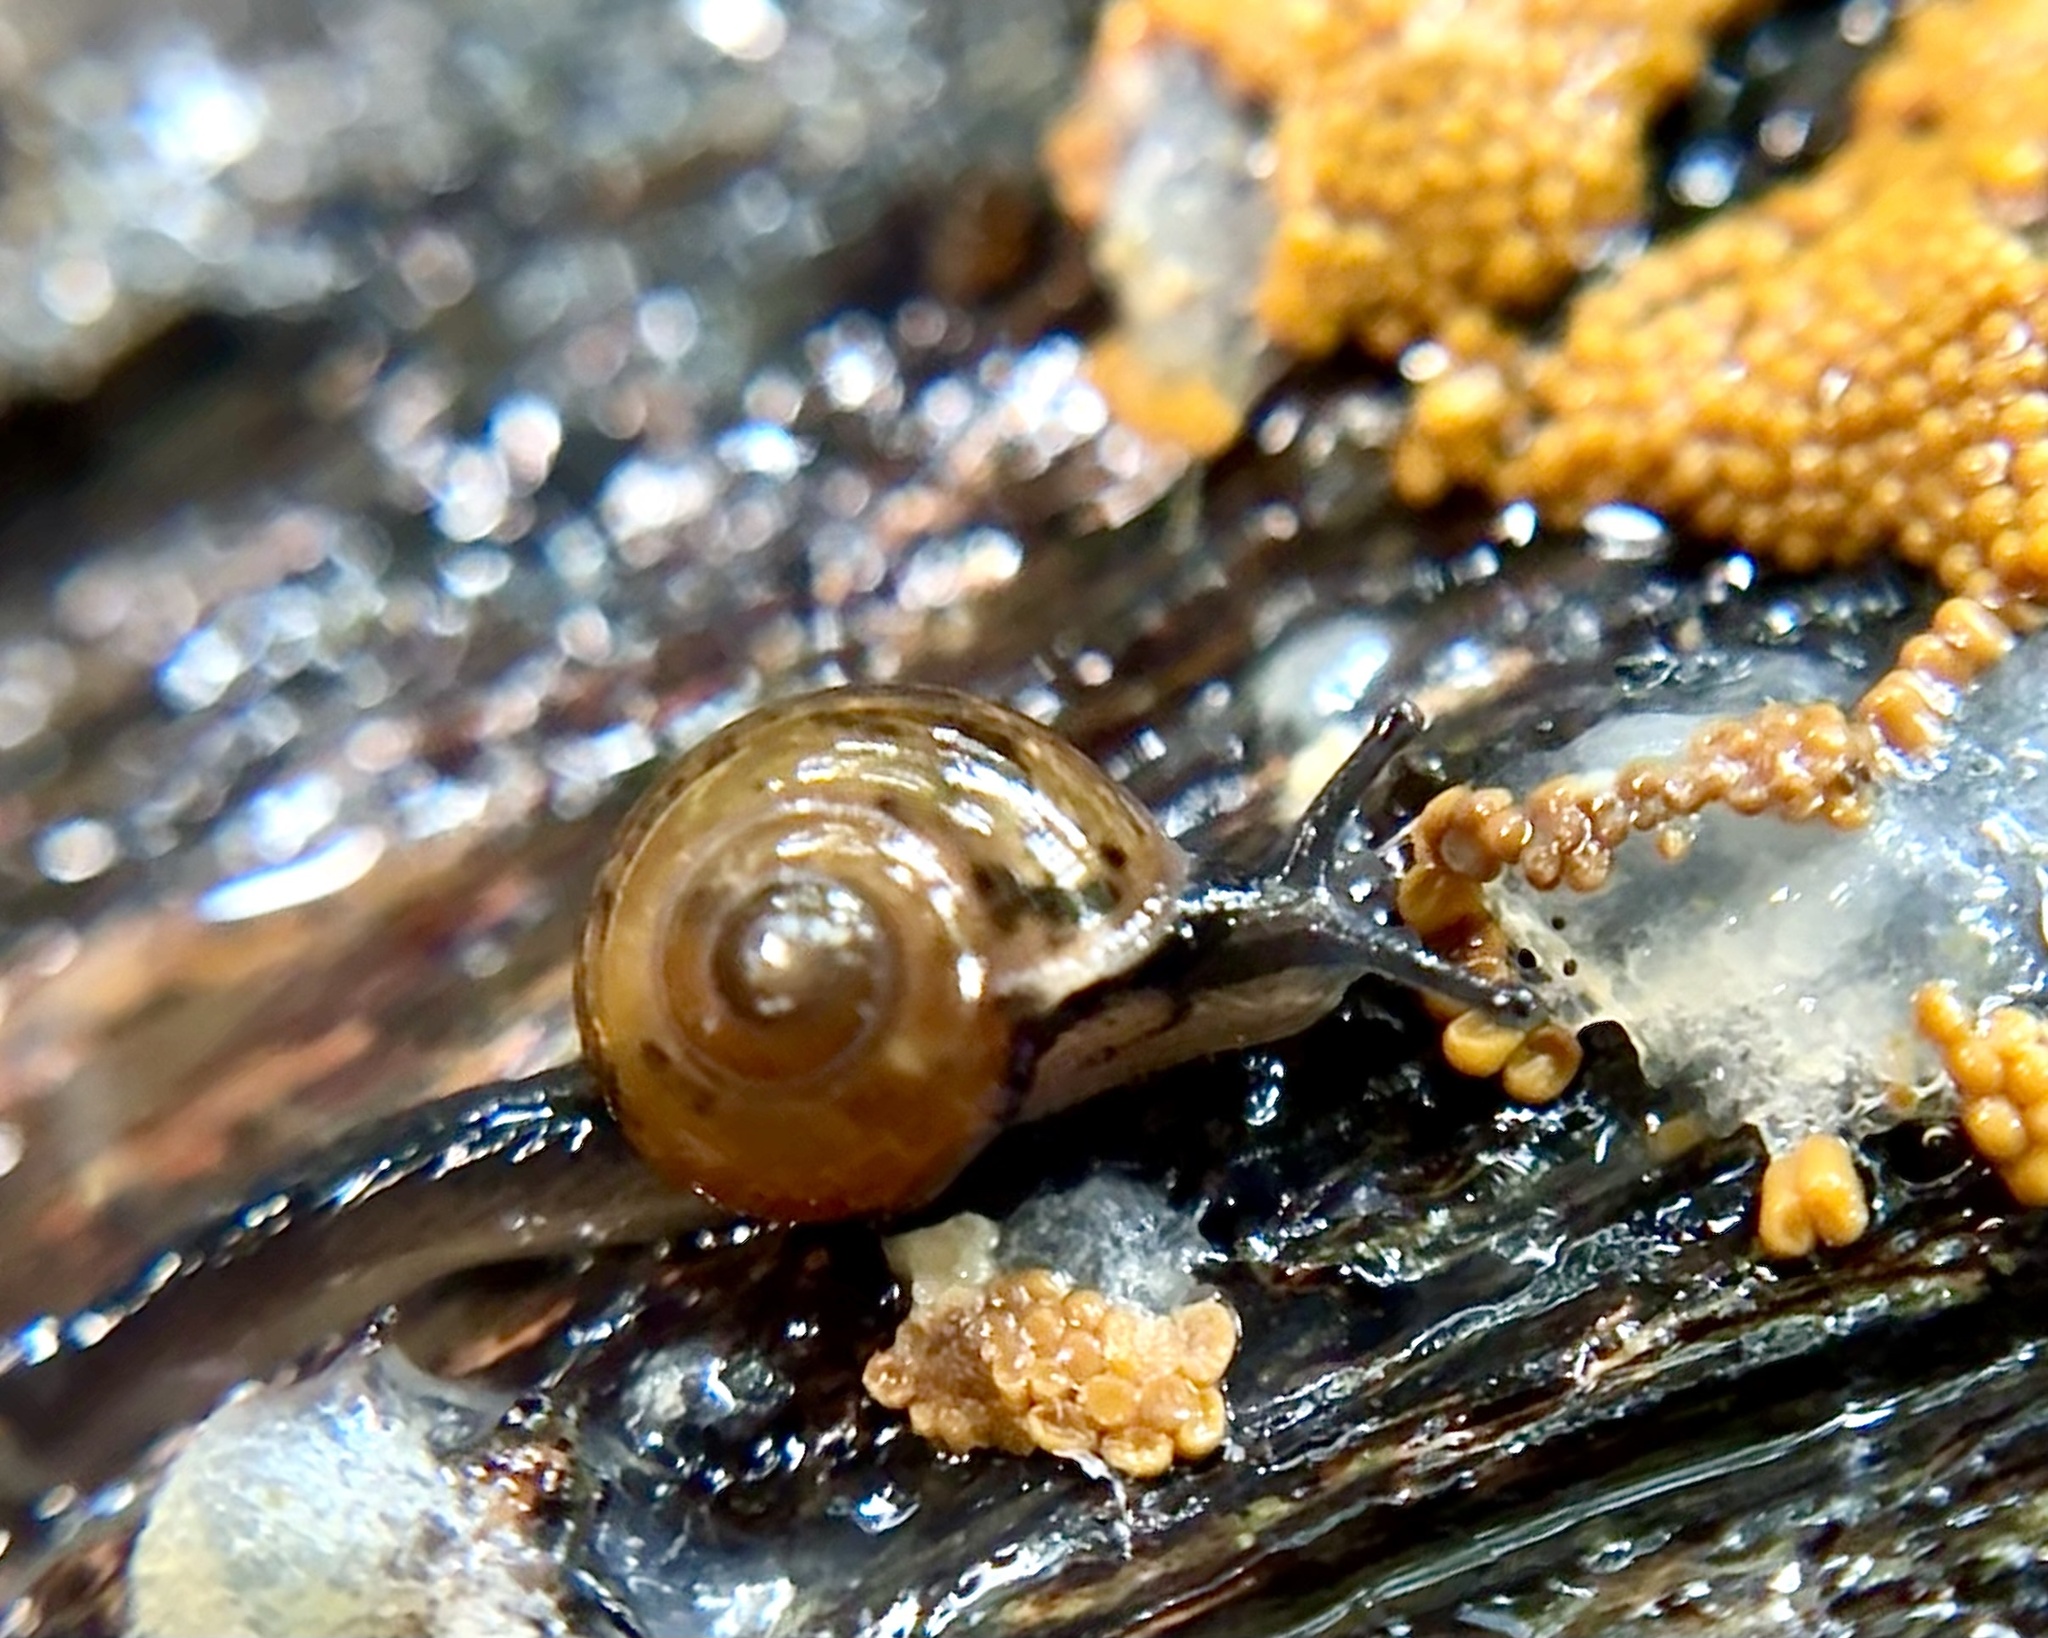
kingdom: Animalia
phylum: Mollusca
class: Gastropoda
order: Stylommatophora
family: Helicarionidae
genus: Ovachlamys
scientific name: Ovachlamys fulgens
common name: Jumping snail
